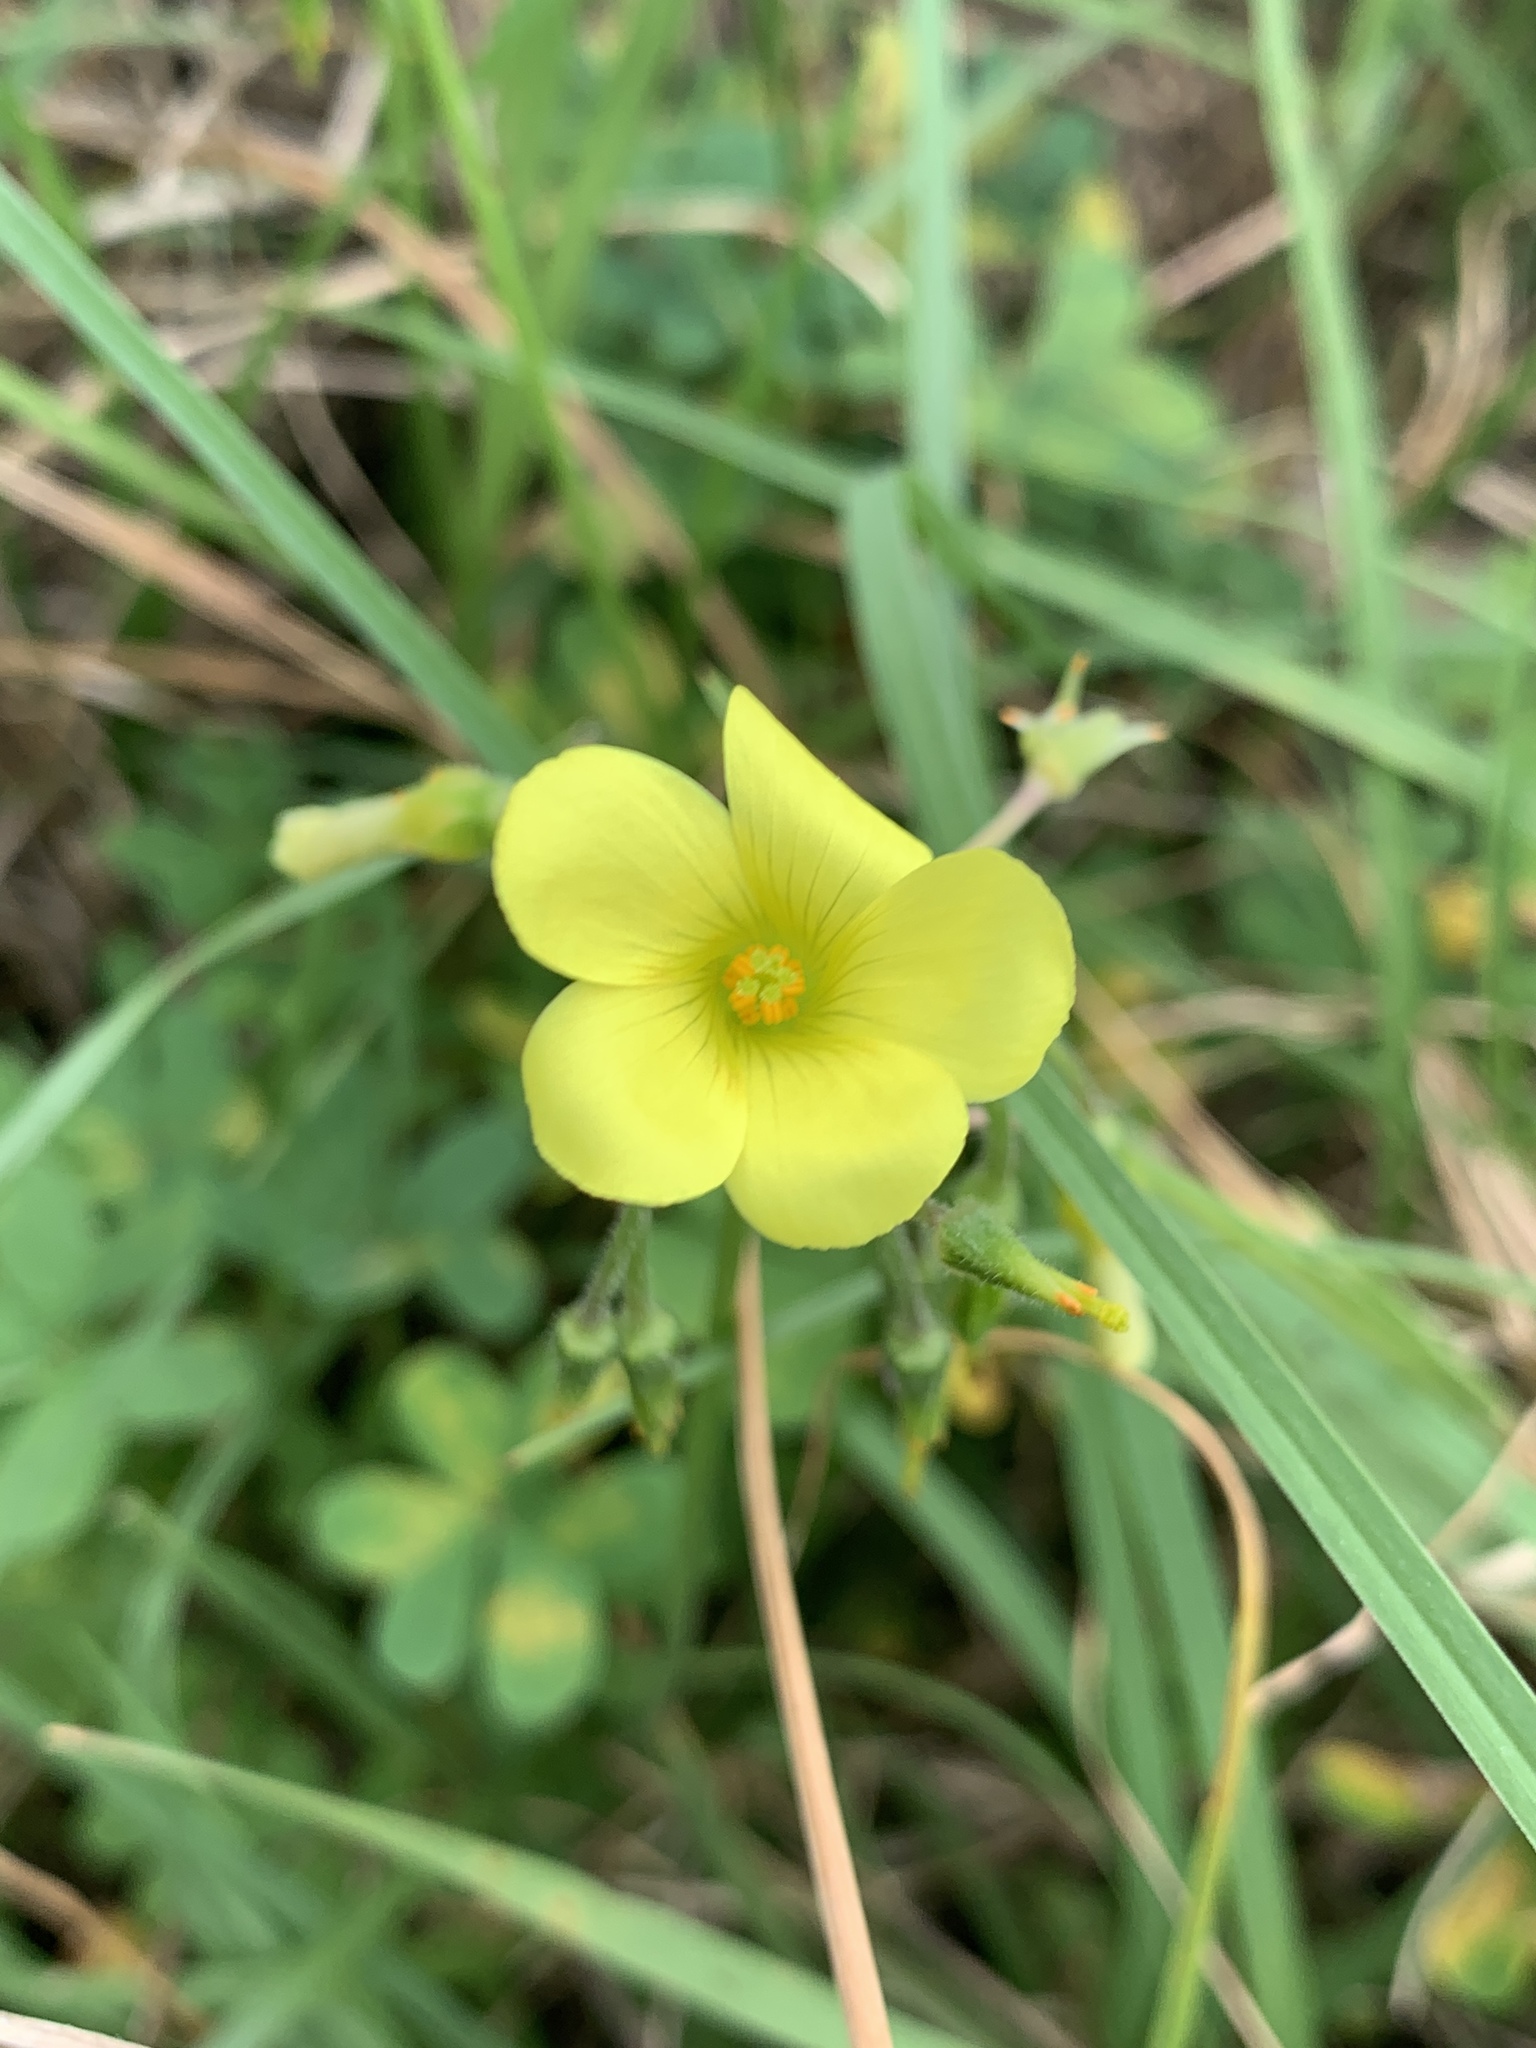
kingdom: Plantae
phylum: Tracheophyta
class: Magnoliopsida
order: Oxalidales
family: Oxalidaceae
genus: Oxalis
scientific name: Oxalis pes-caprae
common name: Bermuda-buttercup
